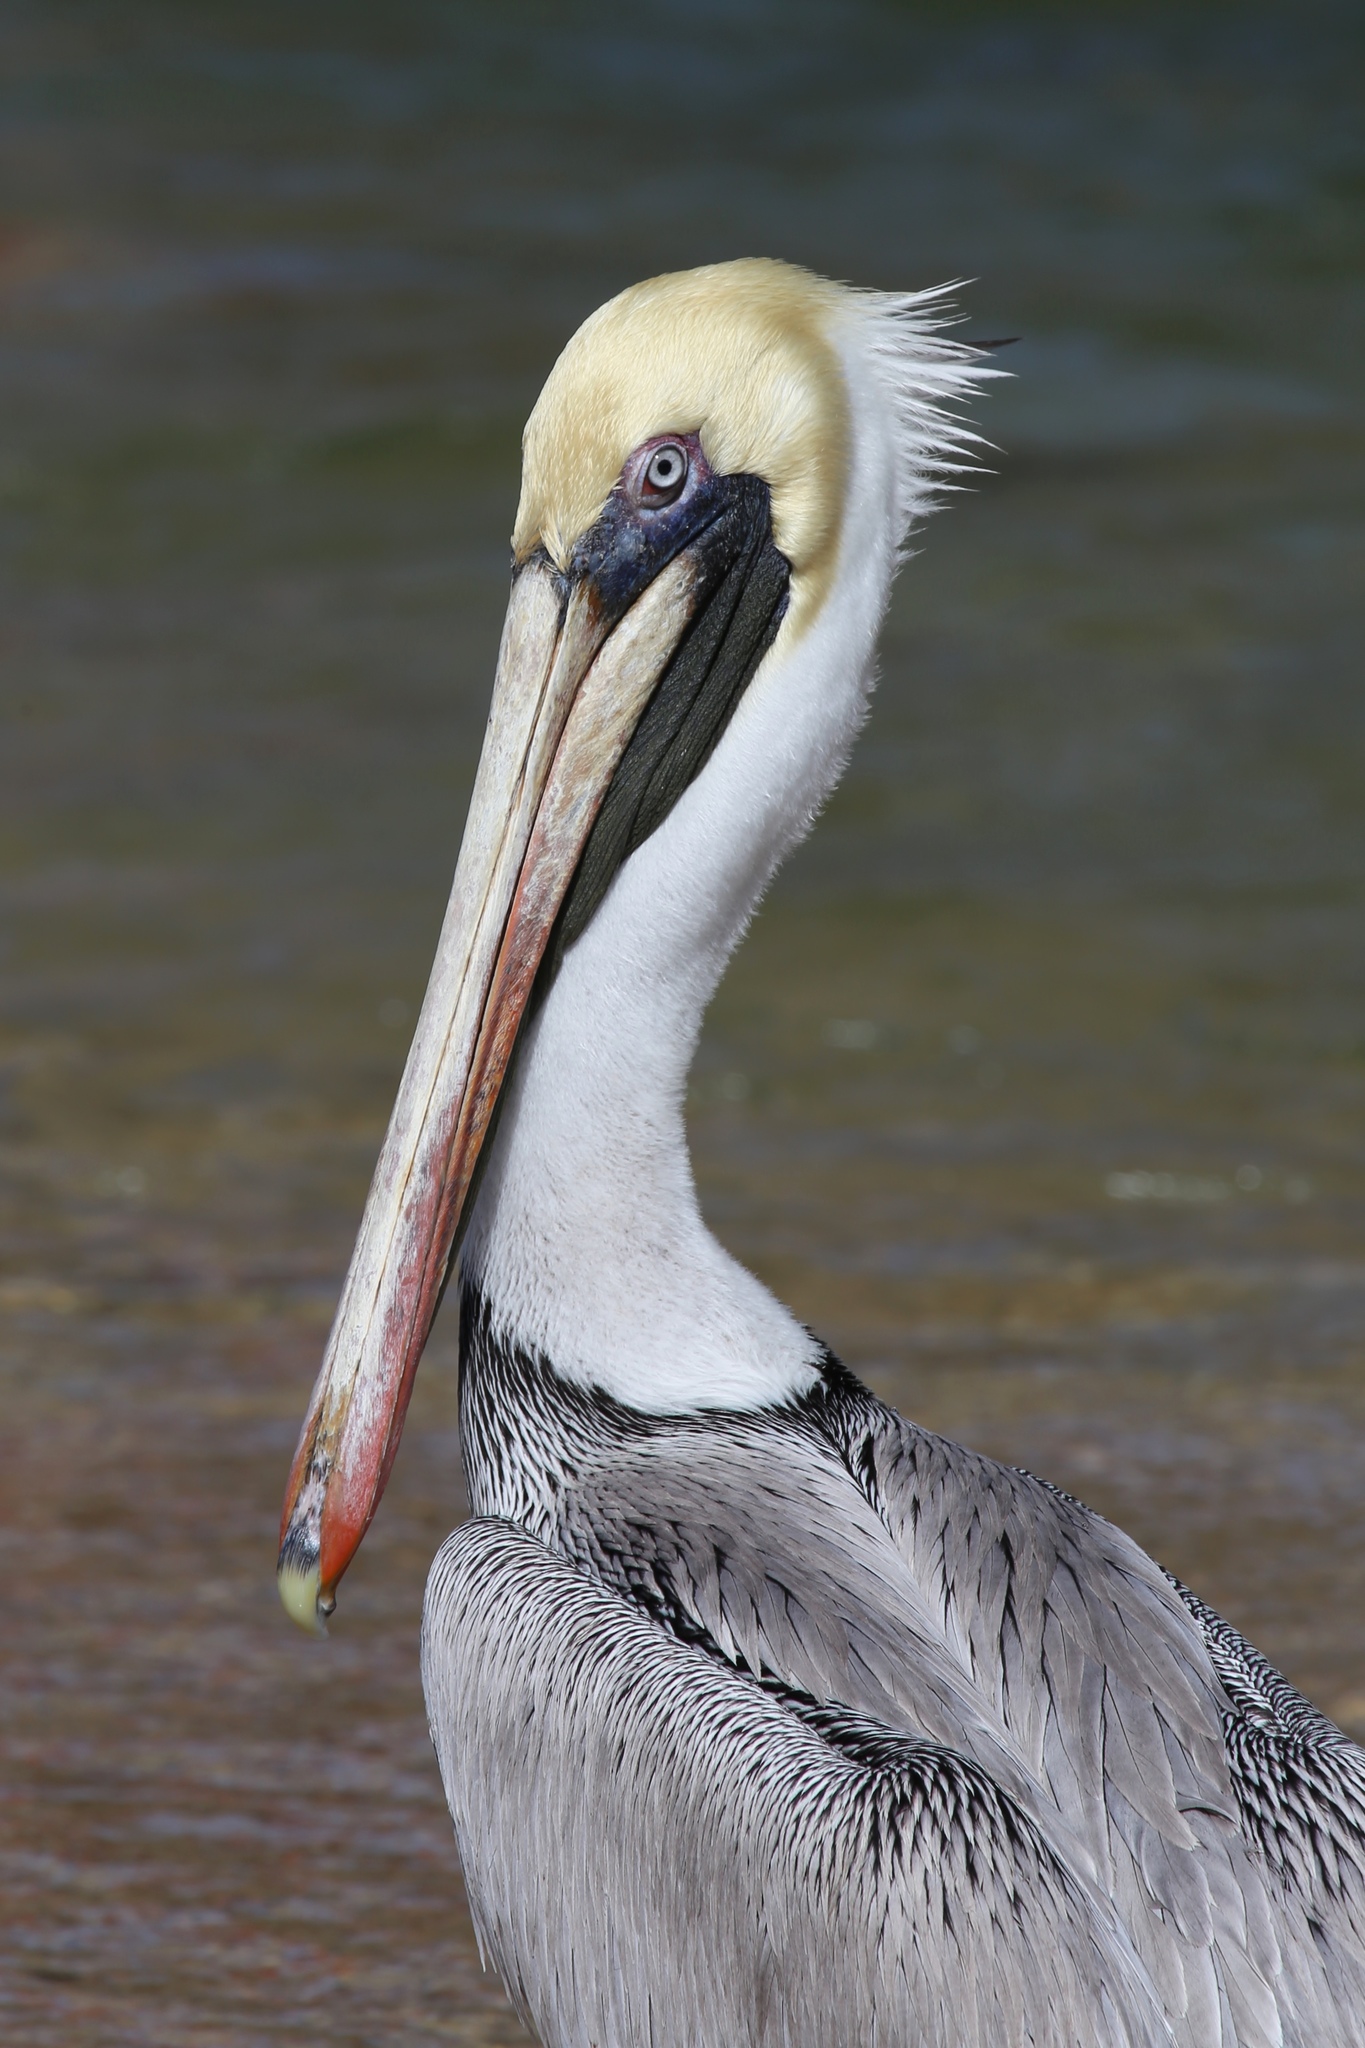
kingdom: Animalia
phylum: Chordata
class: Aves
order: Pelecaniformes
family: Pelecanidae
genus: Pelecanus
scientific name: Pelecanus occidentalis
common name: Brown pelican
